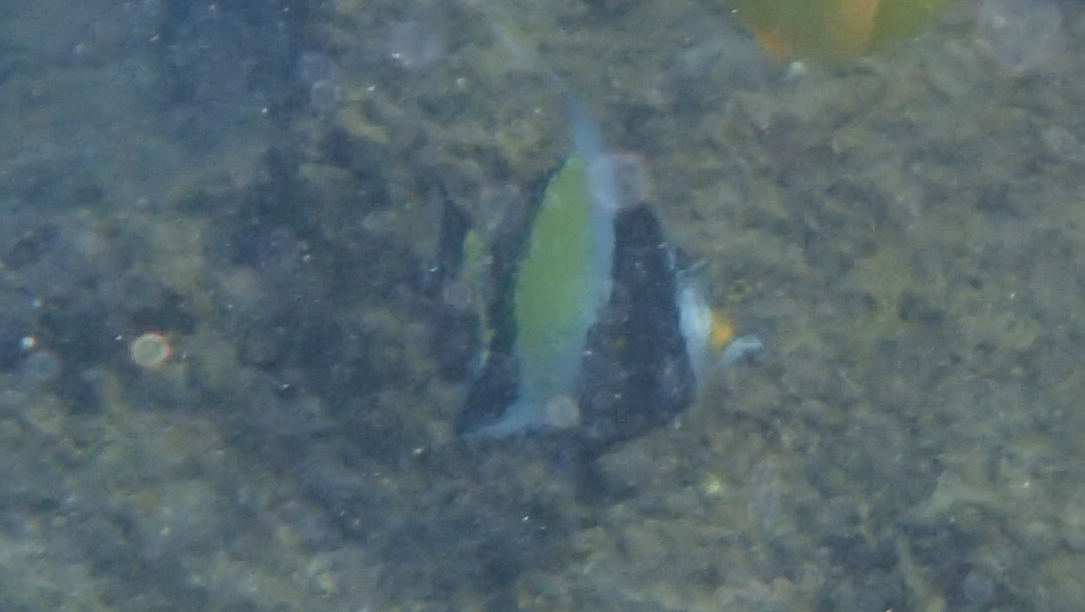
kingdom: Animalia
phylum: Chordata
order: Perciformes
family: Zanclidae
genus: Zanclus
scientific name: Zanclus cornutus
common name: Moorish idol
